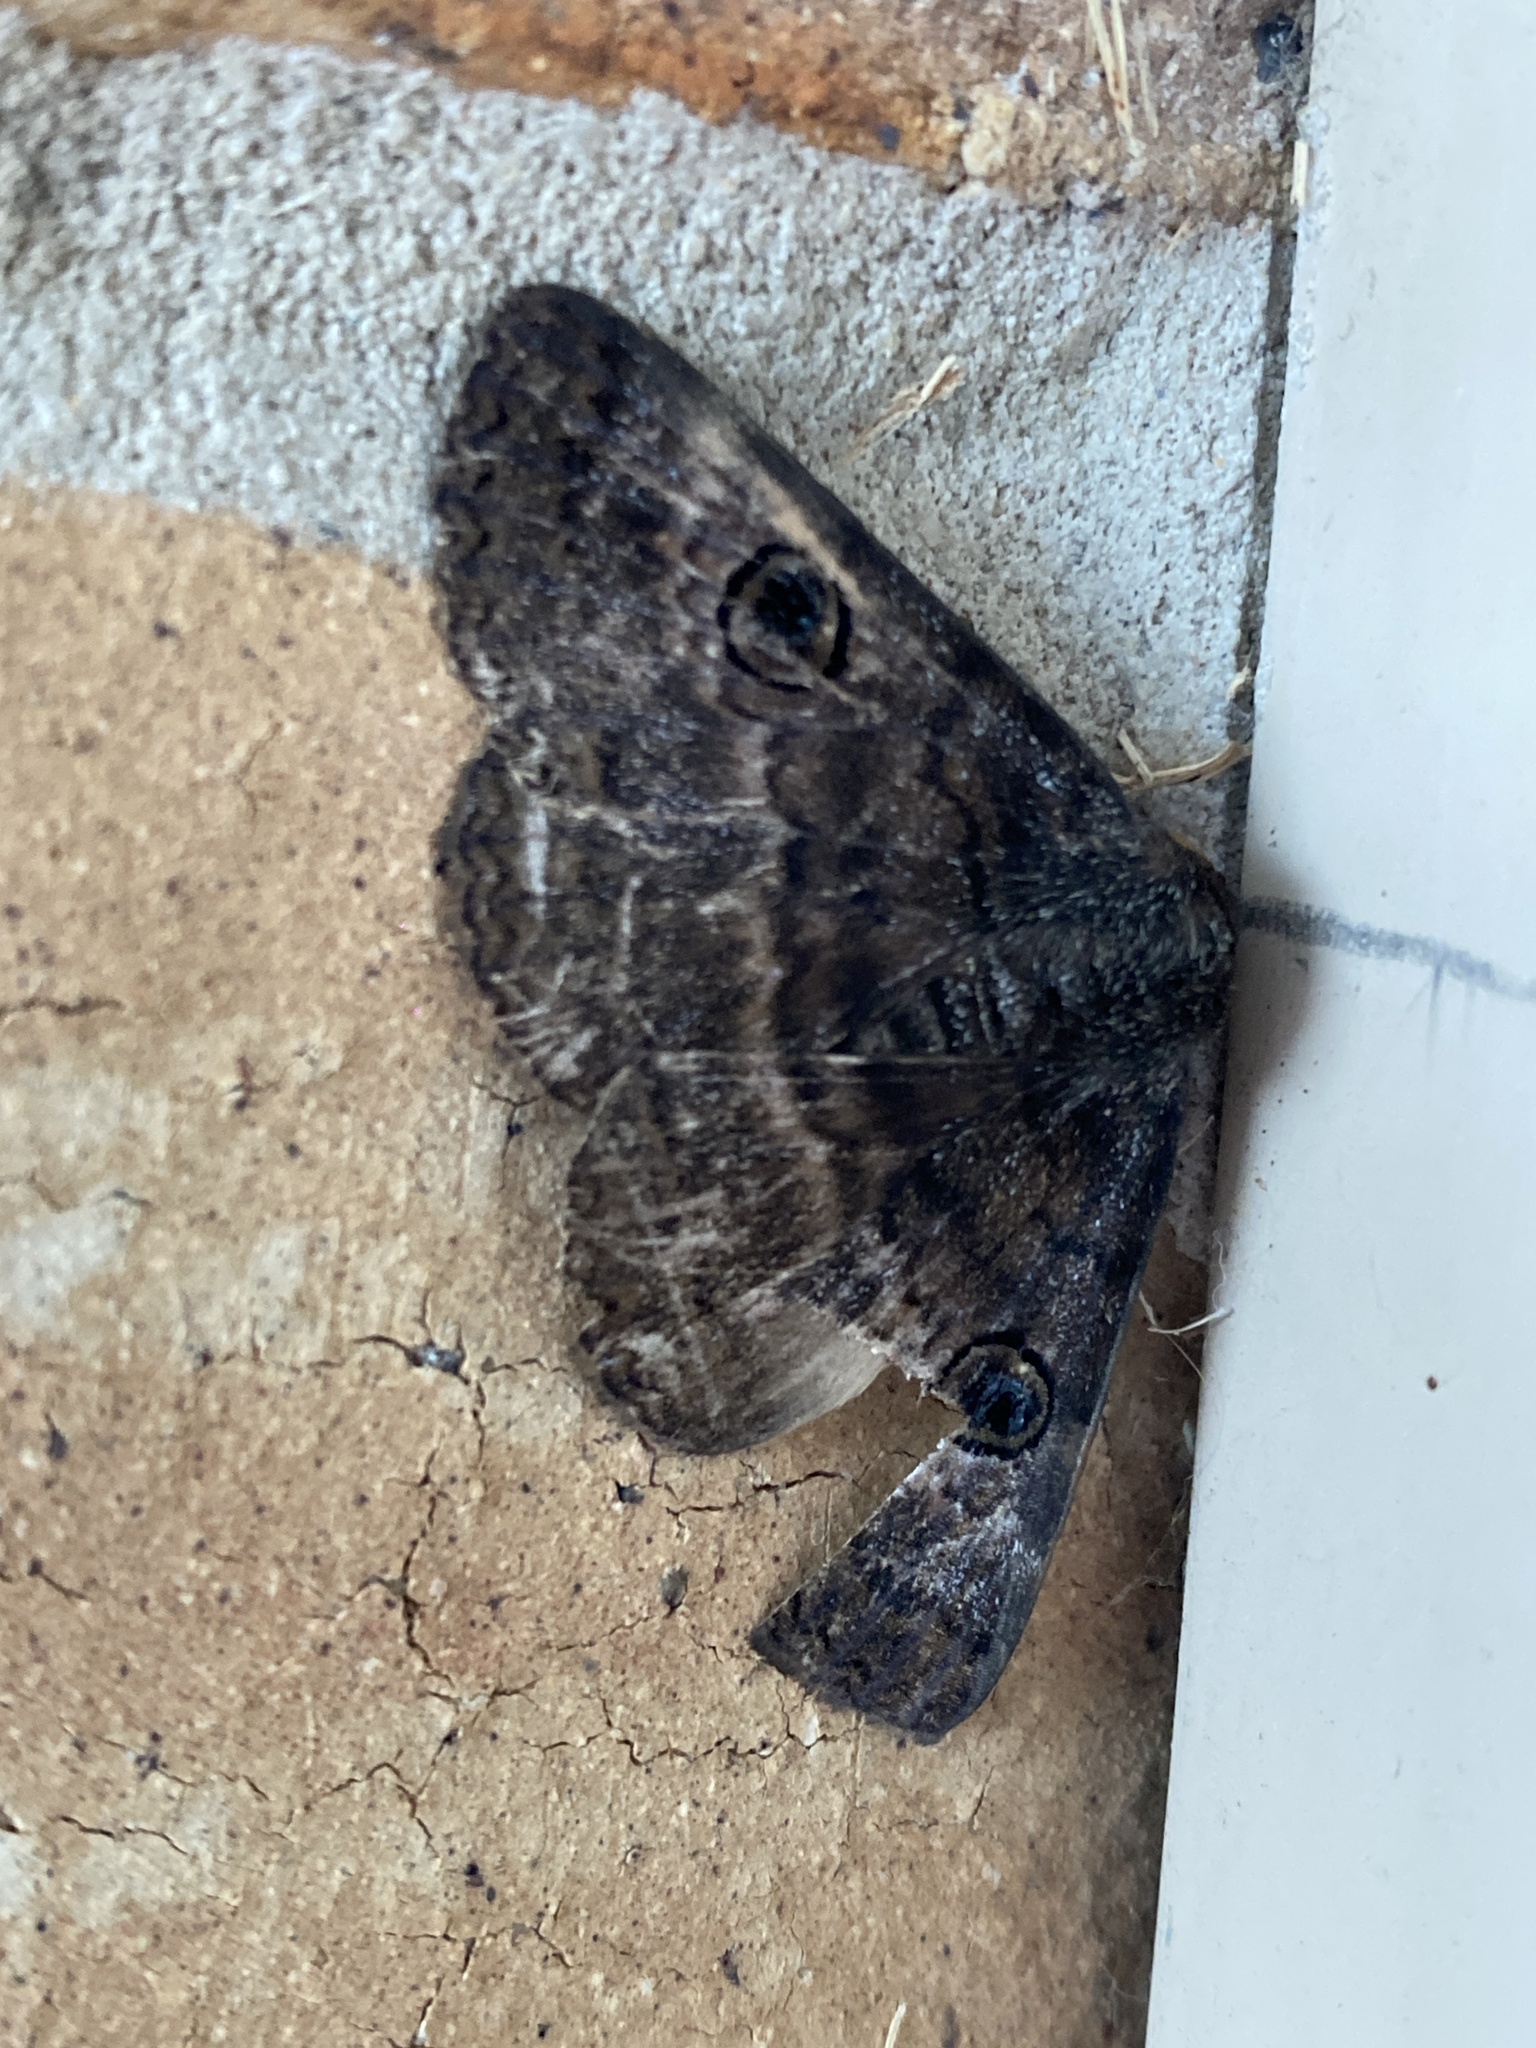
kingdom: Animalia
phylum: Arthropoda
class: Insecta
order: Lepidoptera
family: Erebidae
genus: Donuca
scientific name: Donuca castalia
